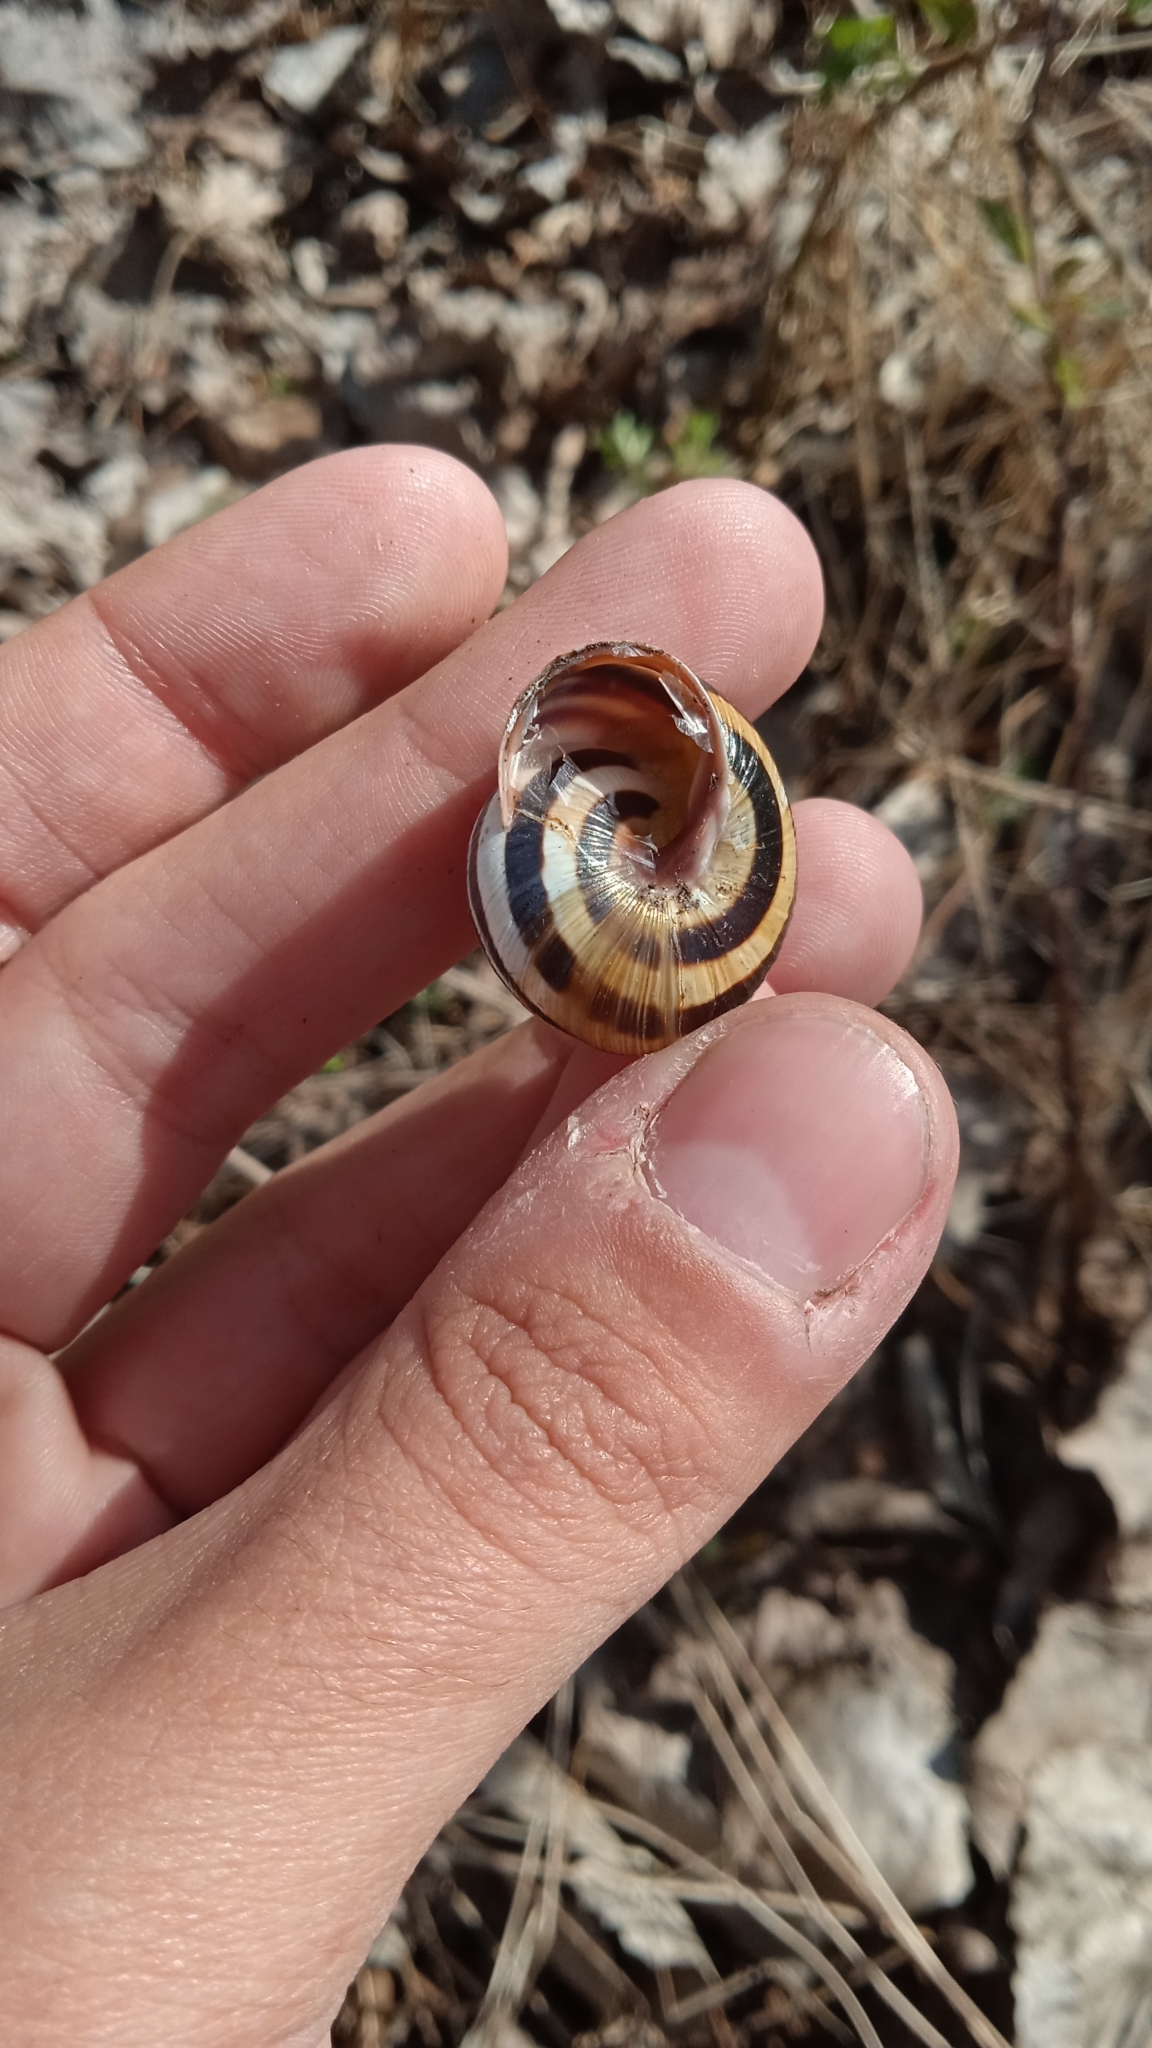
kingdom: Animalia
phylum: Mollusca
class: Gastropoda
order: Stylommatophora
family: Helicidae
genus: Caucasotachea
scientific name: Caucasotachea vindobonensis
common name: European helicid land snail
